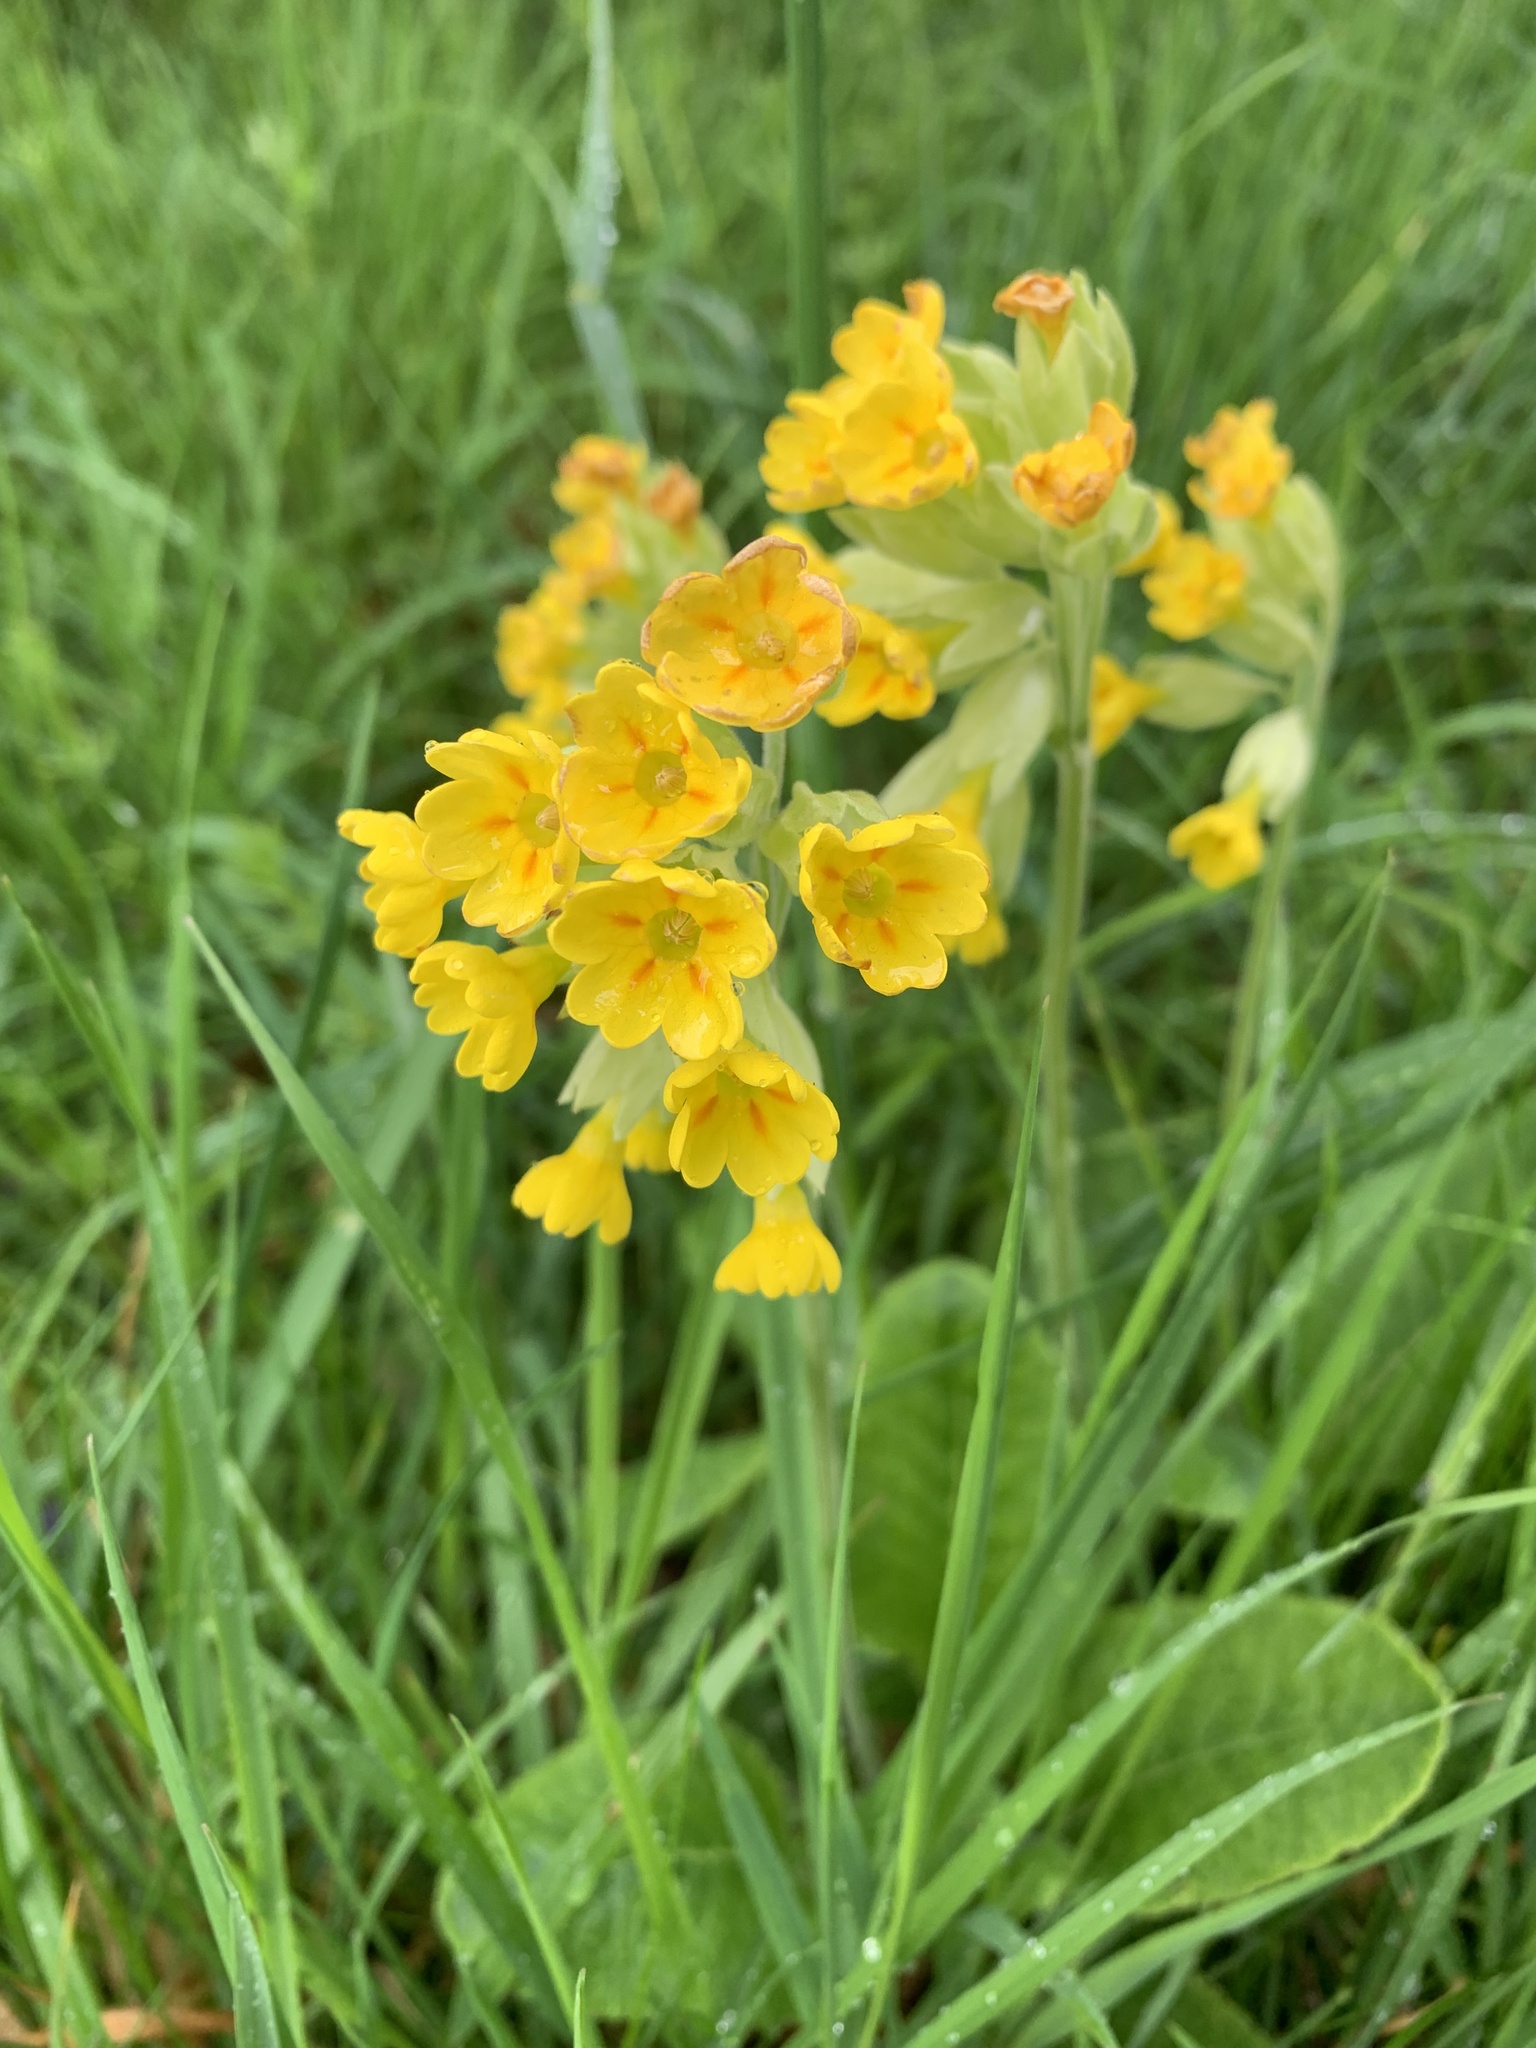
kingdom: Plantae
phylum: Tracheophyta
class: Magnoliopsida
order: Ericales
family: Primulaceae
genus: Primula
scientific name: Primula veris
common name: Cowslip
